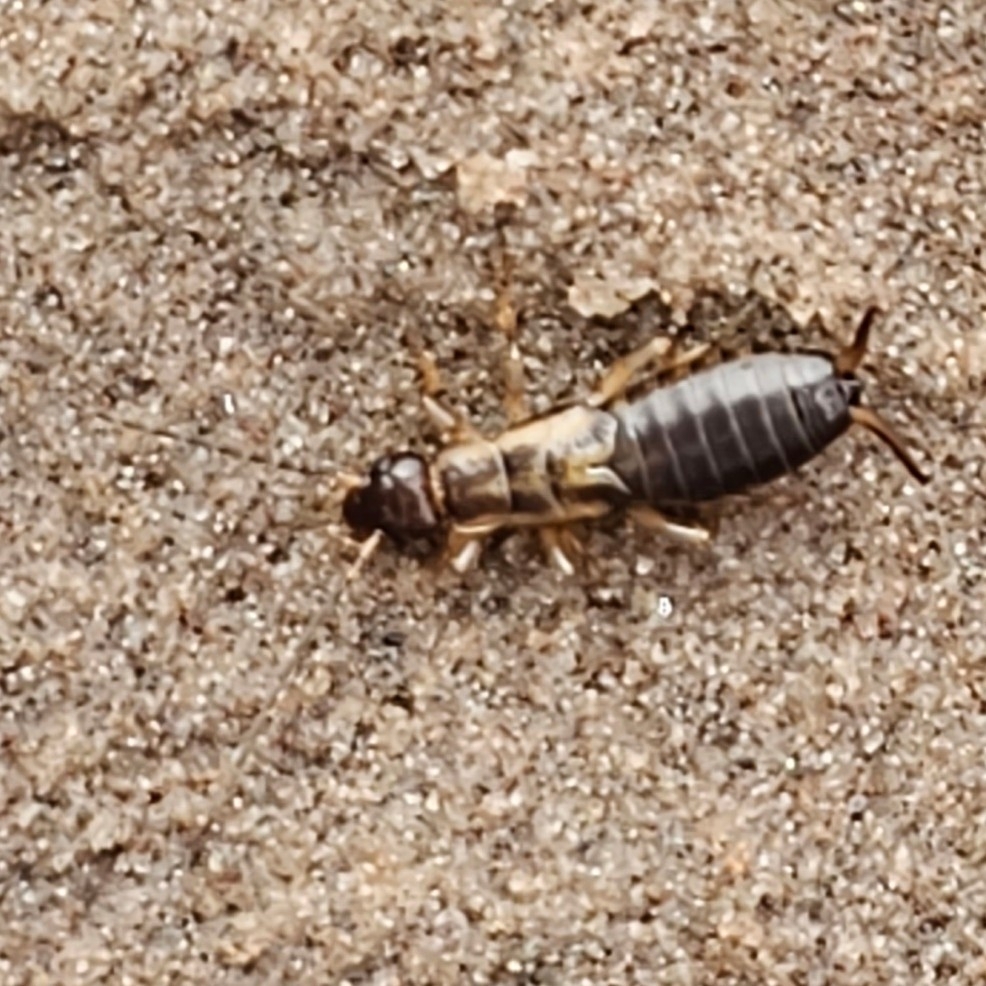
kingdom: Animalia
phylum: Arthropoda
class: Insecta
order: Dermaptera
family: Forficulidae
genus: Forficula
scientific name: Forficula
